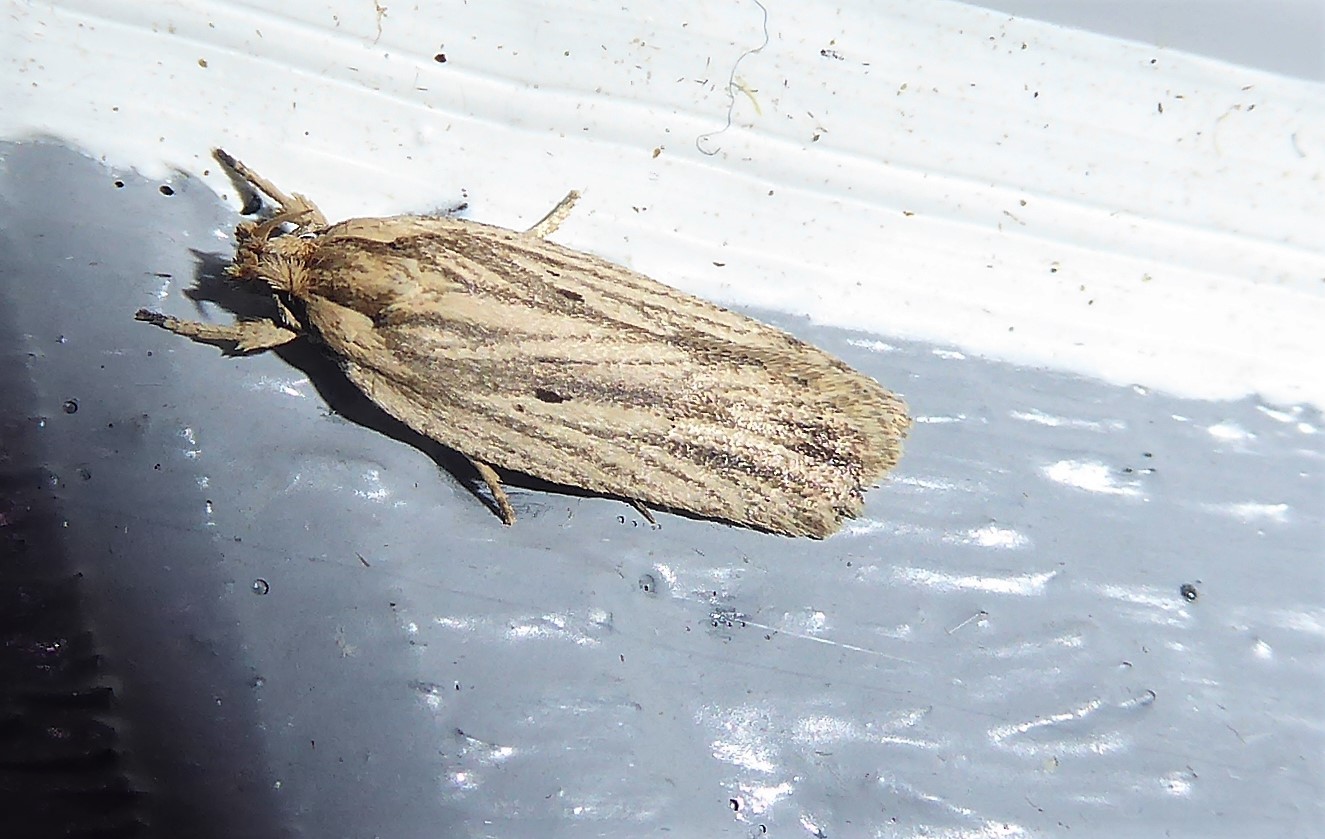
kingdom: Animalia
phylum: Arthropoda
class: Insecta
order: Lepidoptera
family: Depressariidae
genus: Agonopterix
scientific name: Agonopterix
